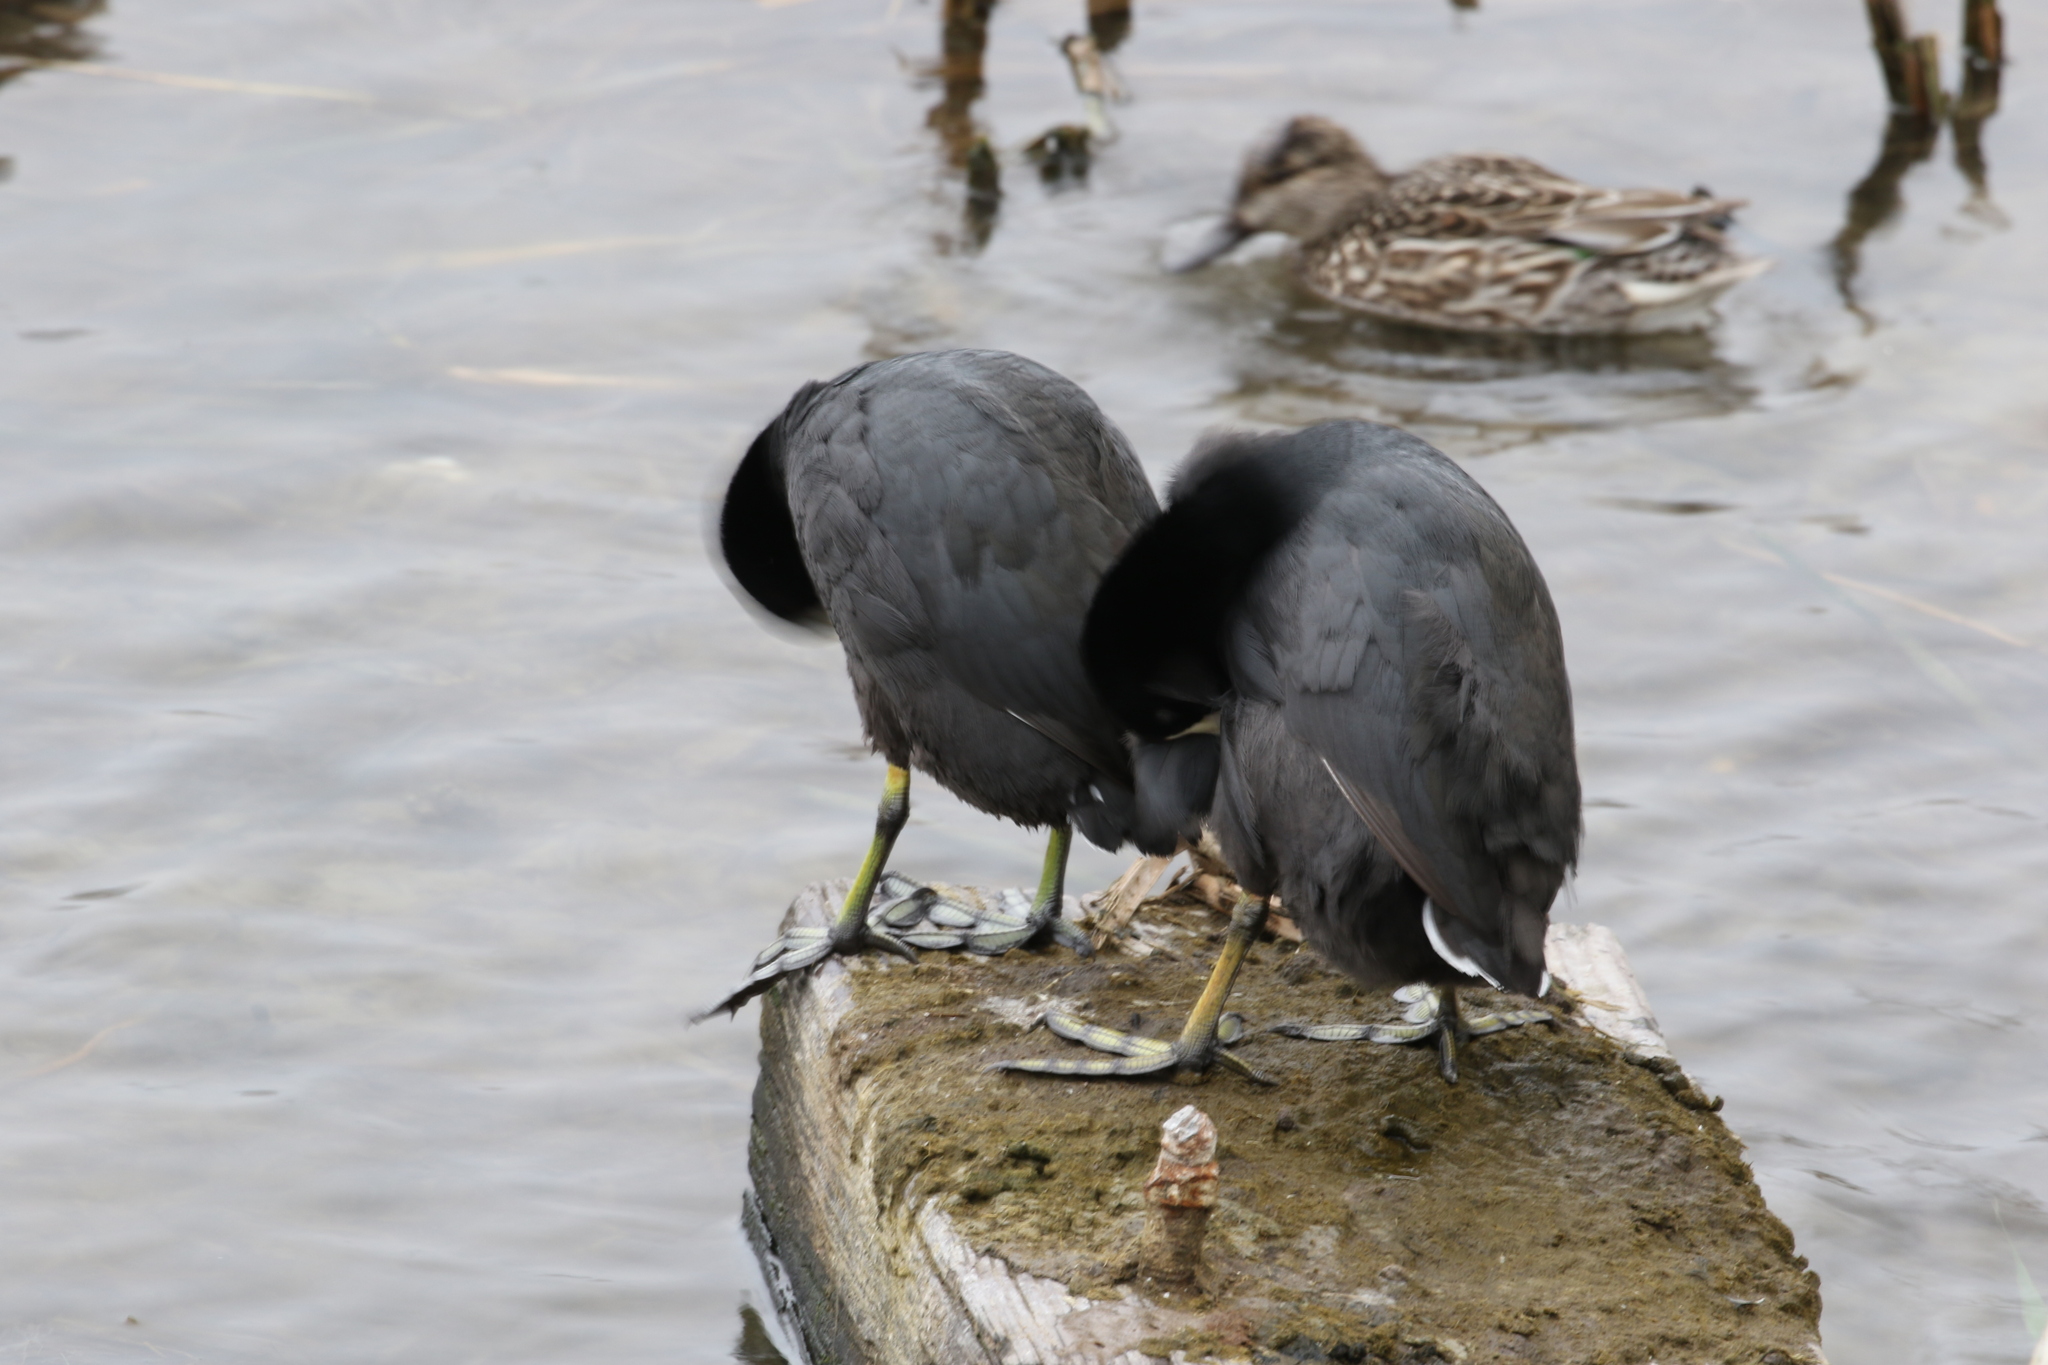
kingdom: Animalia
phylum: Chordata
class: Aves
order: Gruiformes
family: Rallidae
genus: Fulica
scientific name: Fulica americana
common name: American coot
